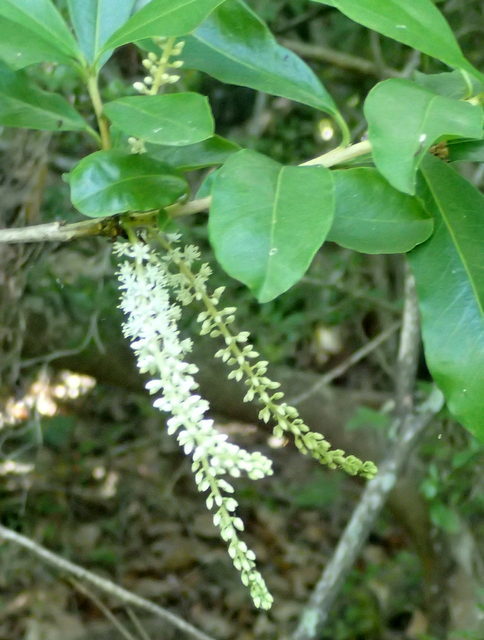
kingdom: Plantae
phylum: Tracheophyta
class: Magnoliopsida
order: Ericales
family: Cyrillaceae
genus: Cyrilla
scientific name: Cyrilla racemiflora
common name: Black titi
